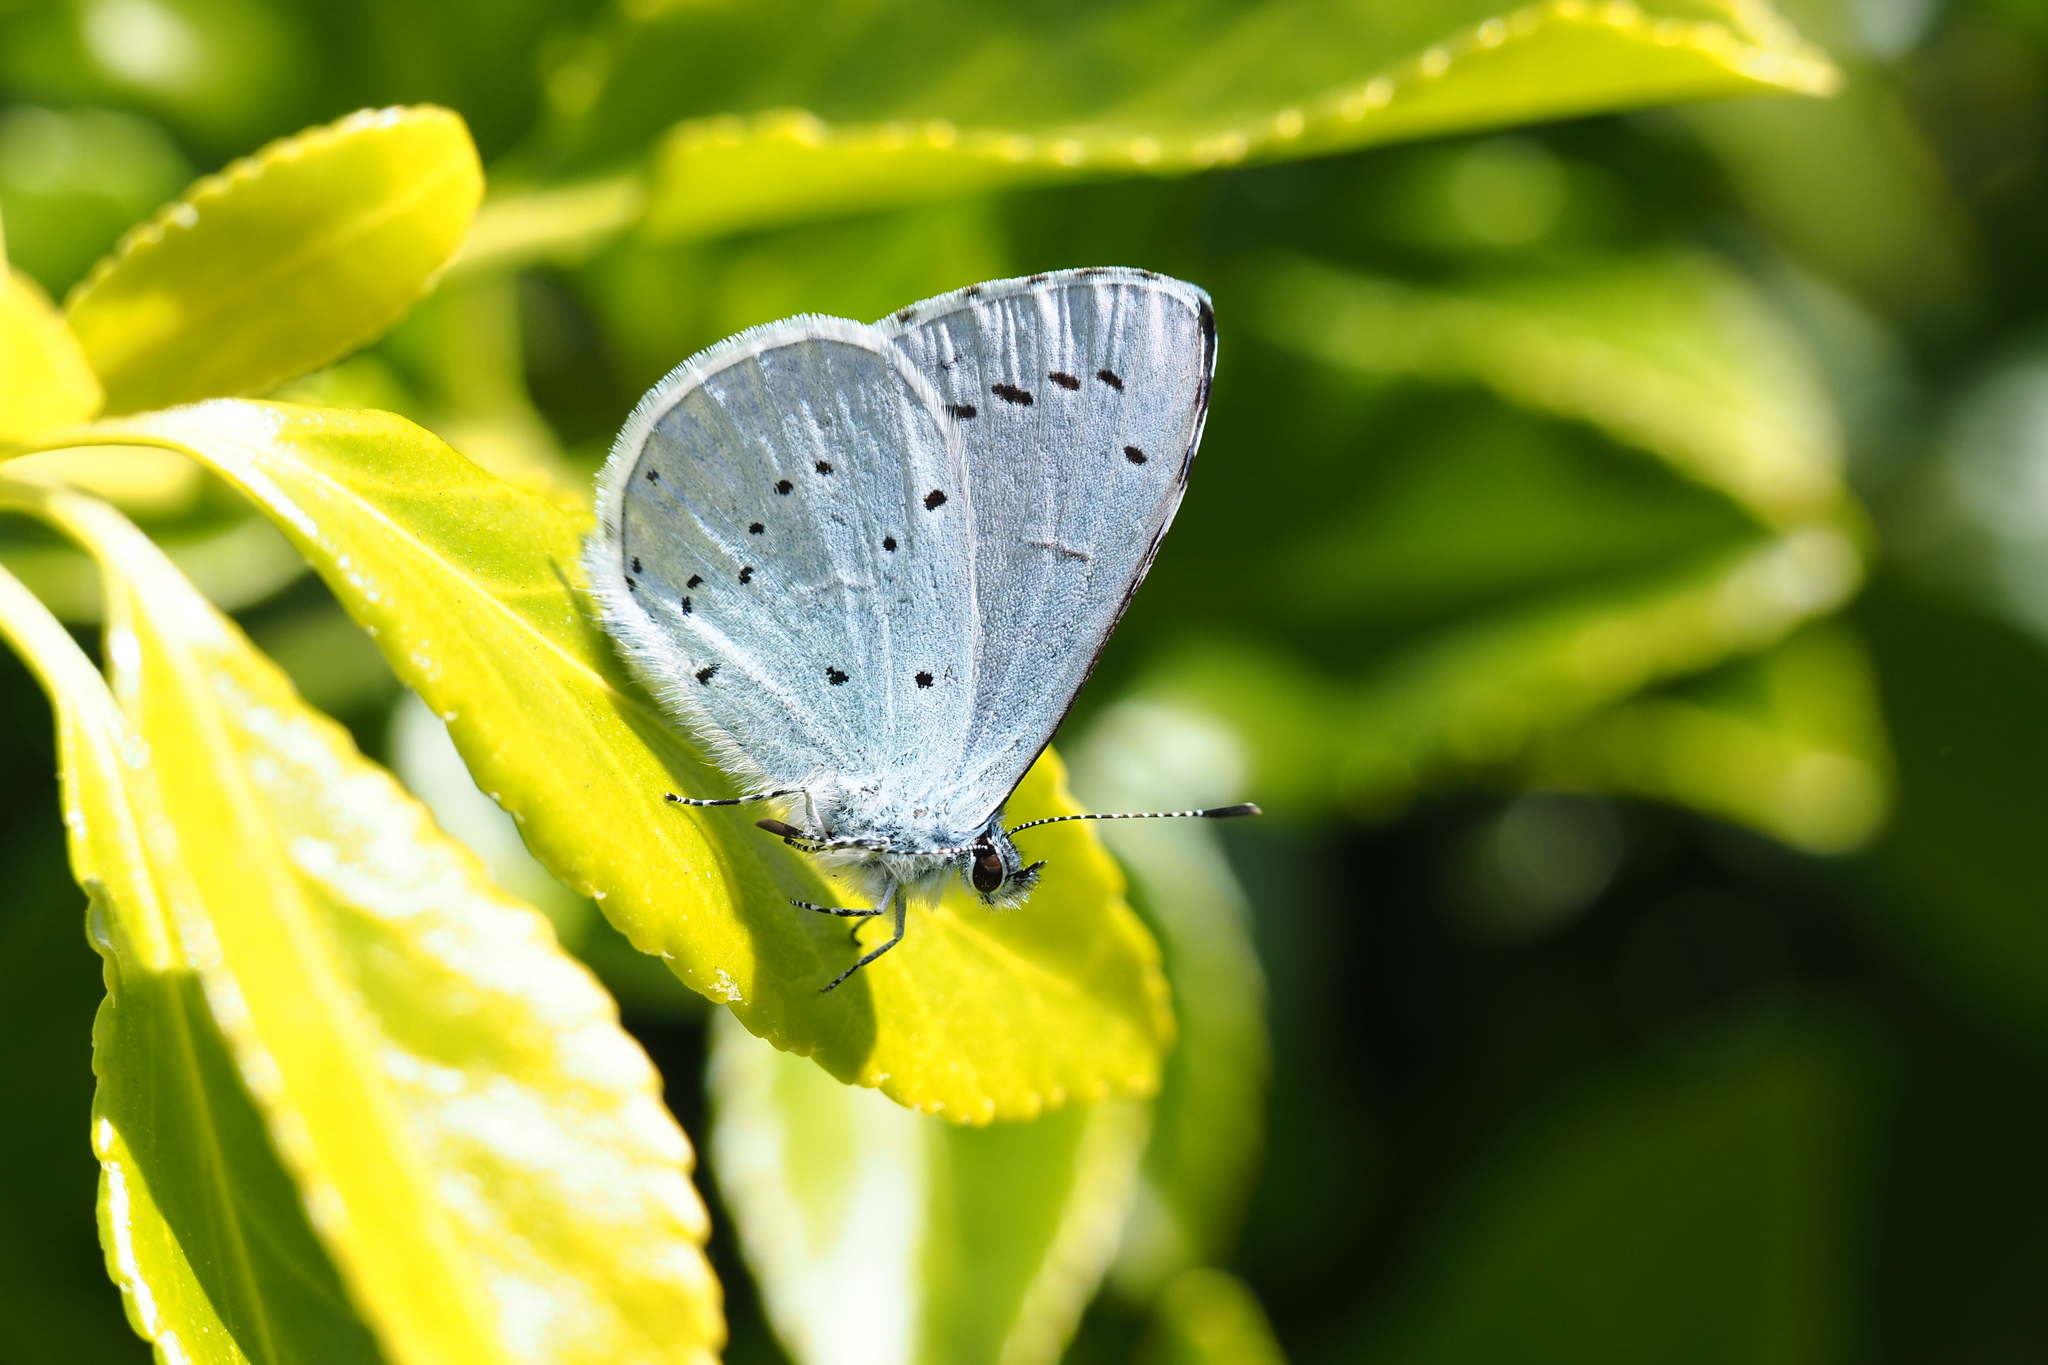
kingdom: Animalia
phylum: Arthropoda
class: Insecta
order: Lepidoptera
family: Lycaenidae
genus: Celastrina
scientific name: Celastrina argiolus
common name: Holly blue
